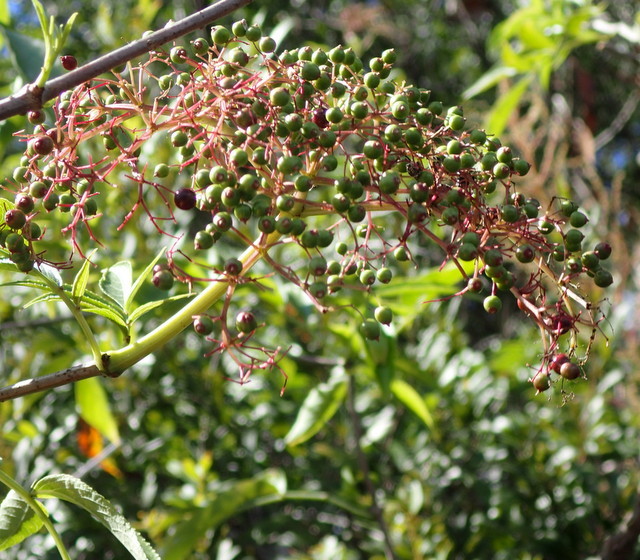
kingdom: Plantae
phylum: Tracheophyta
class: Magnoliopsida
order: Dipsacales
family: Viburnaceae
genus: Sambucus
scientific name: Sambucus canadensis
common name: American elder
